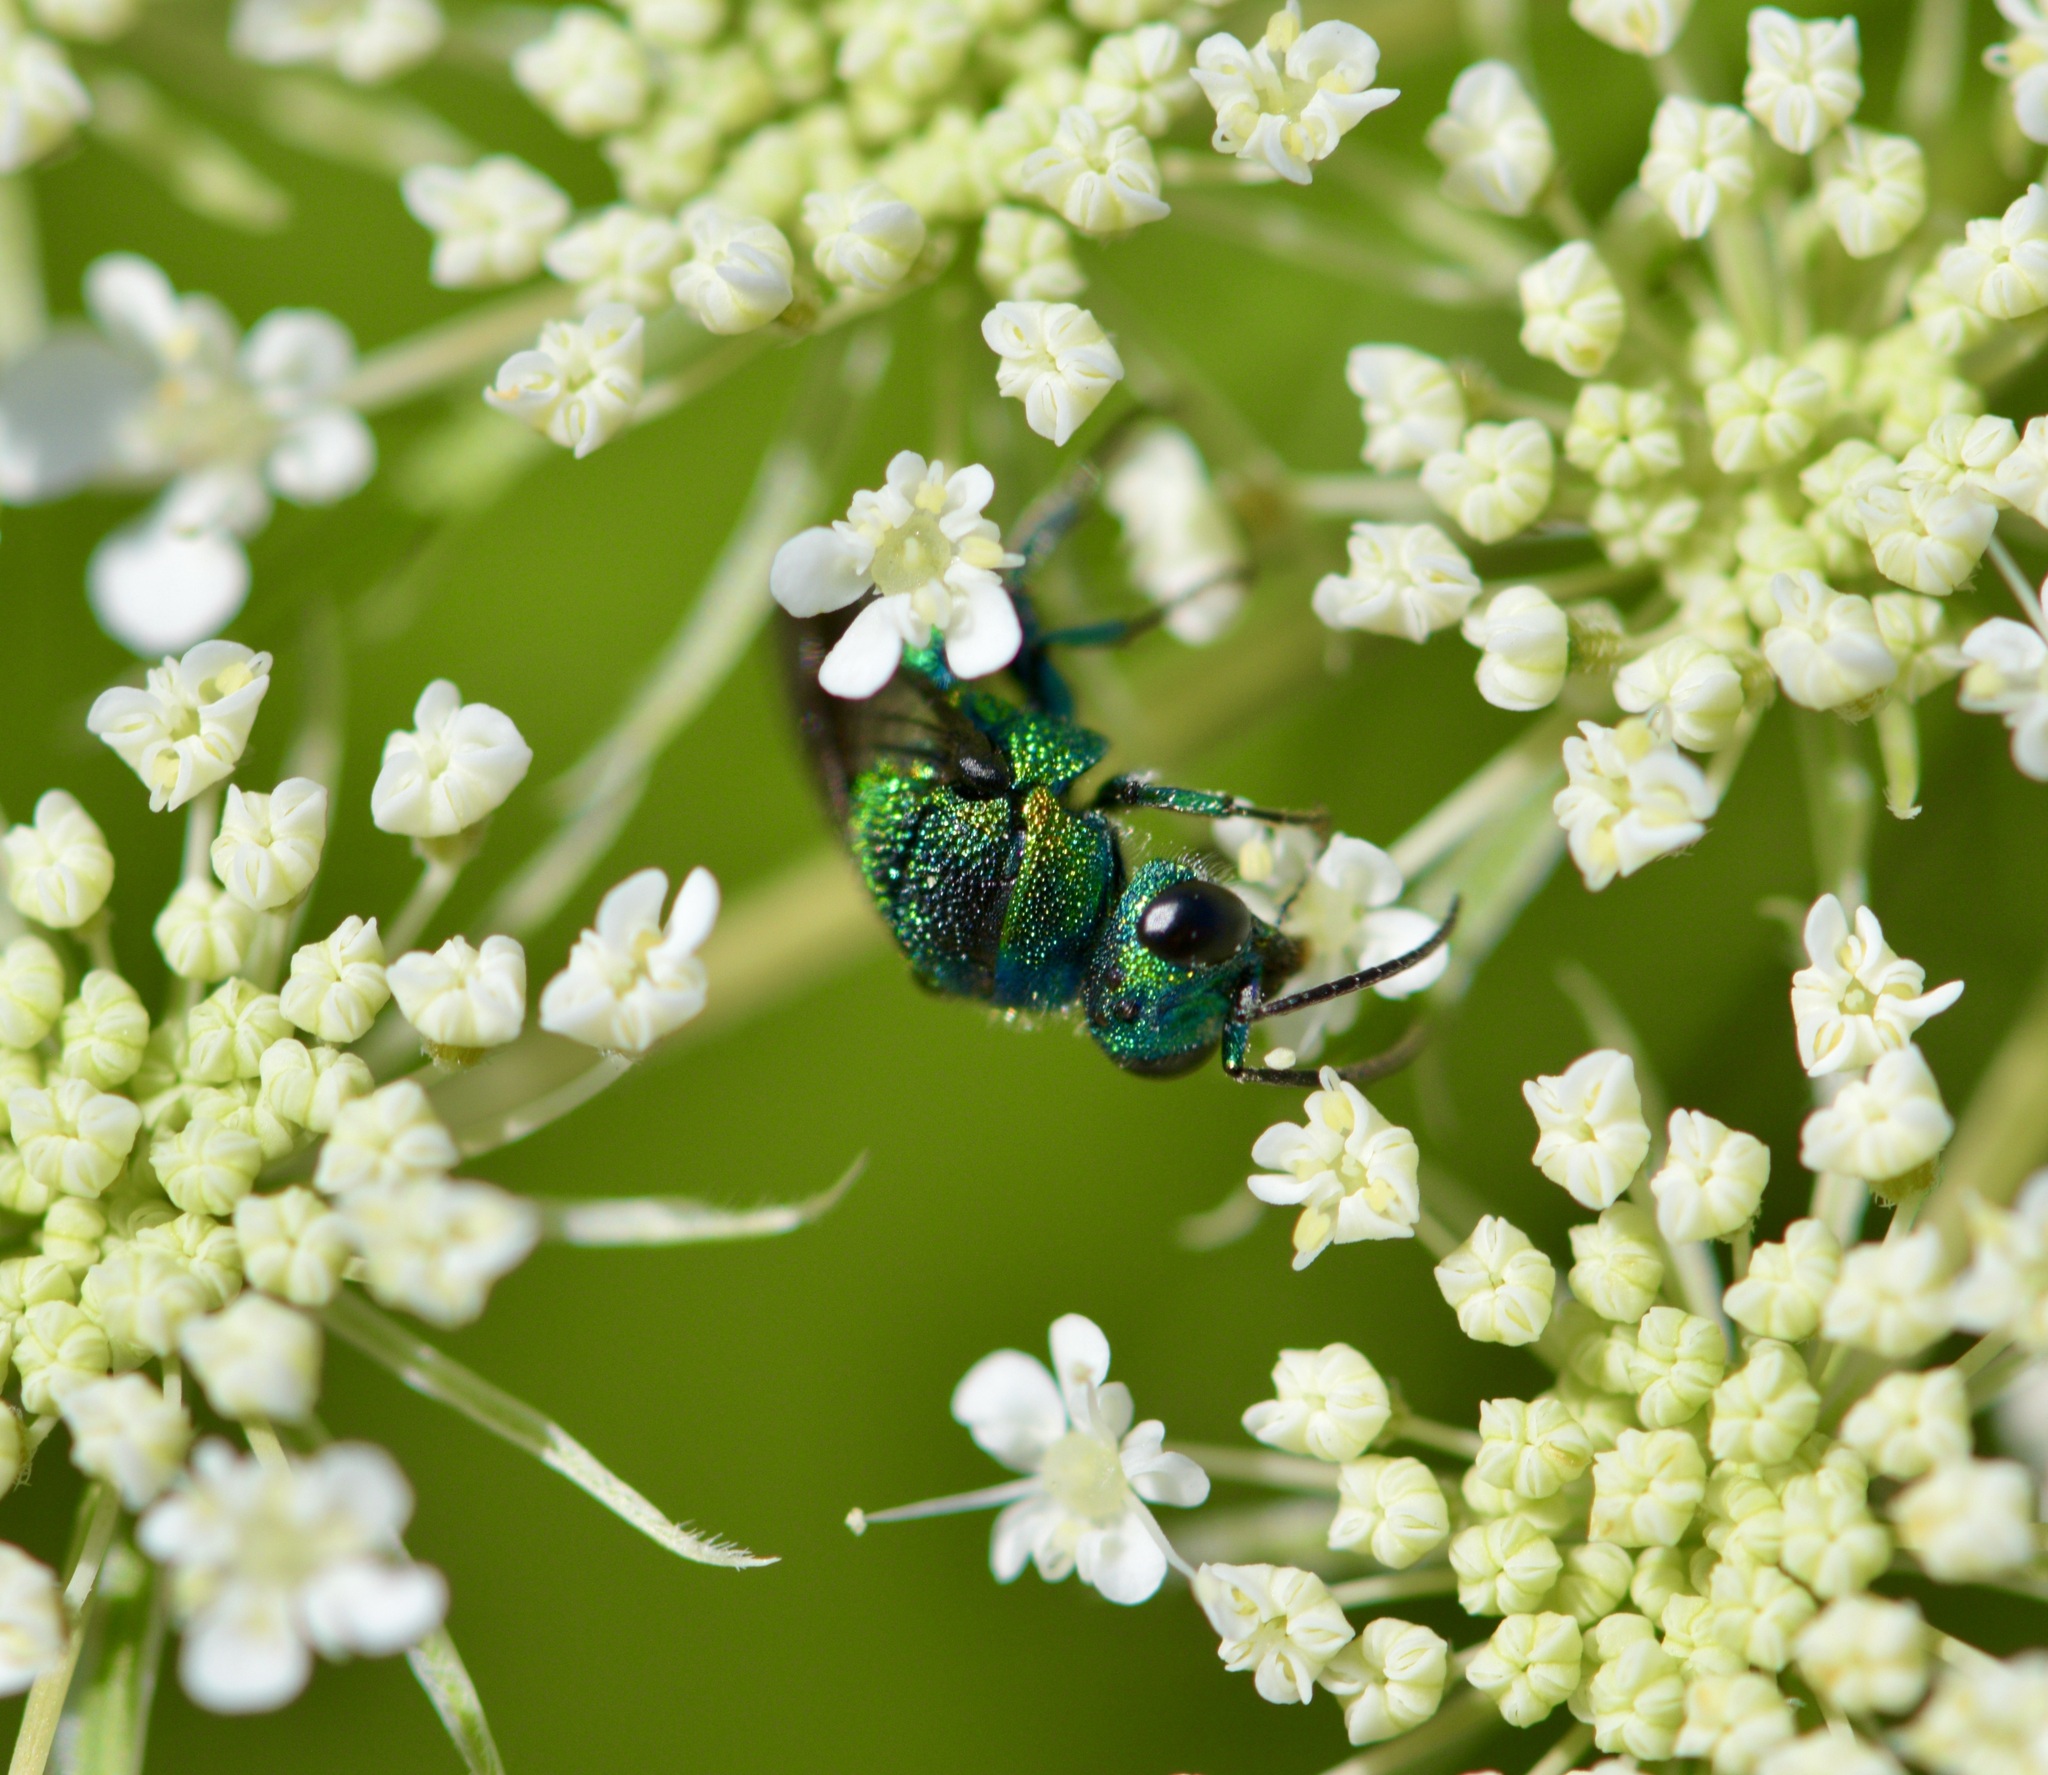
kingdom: Animalia
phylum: Arthropoda
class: Insecta
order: Hymenoptera
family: Chrysididae
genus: Holopyga
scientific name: Holopyga
